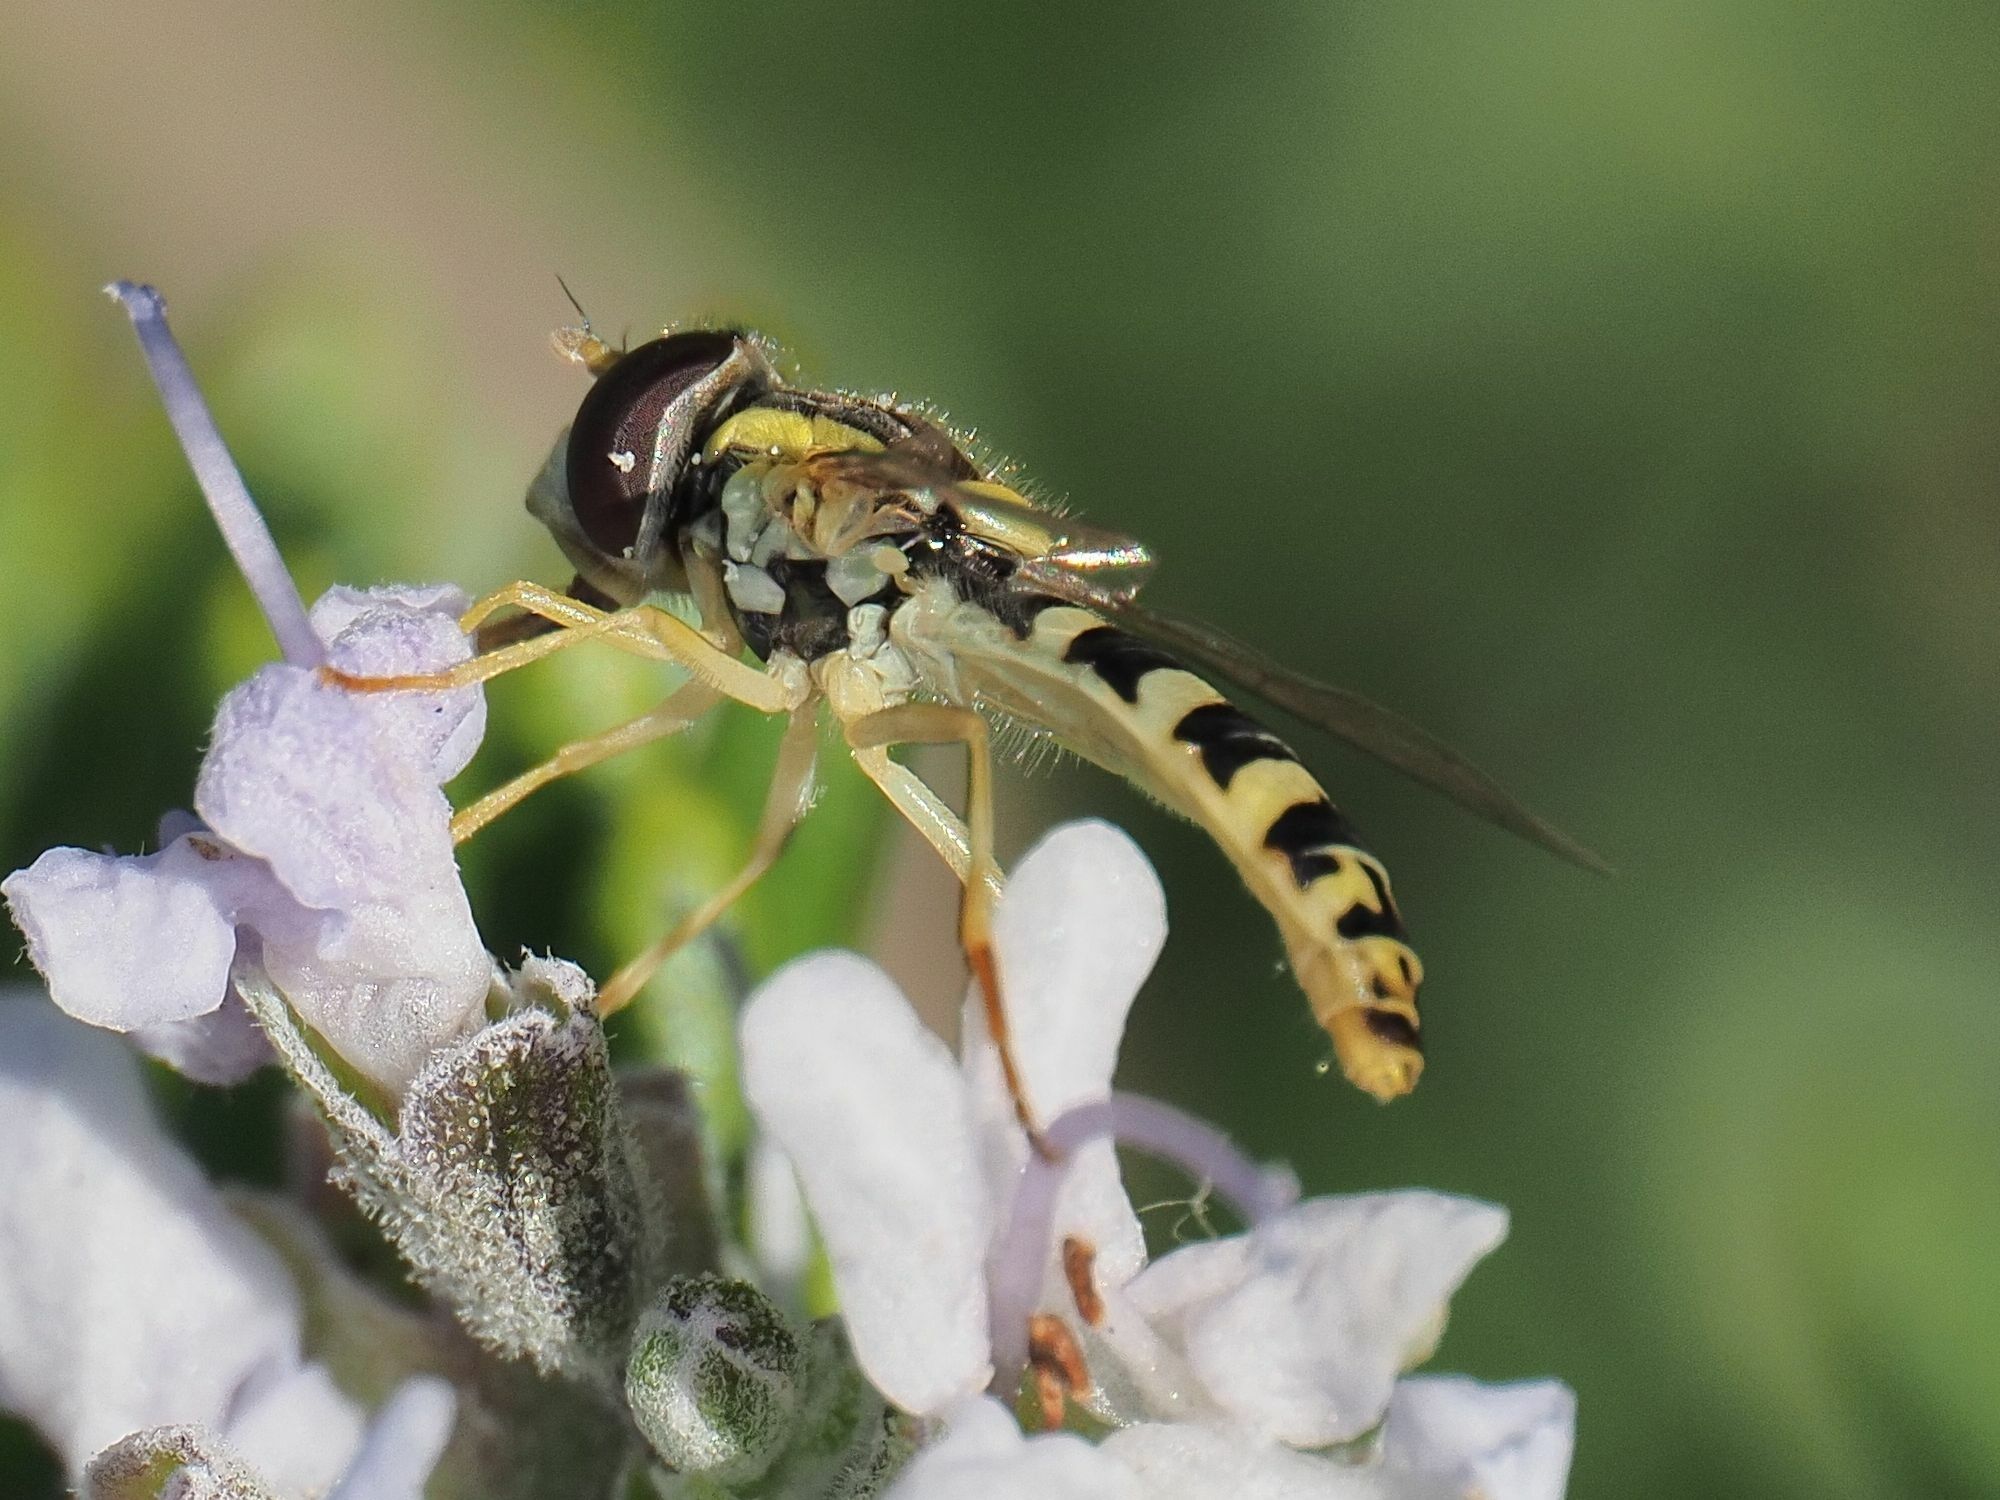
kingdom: Animalia
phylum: Arthropoda
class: Insecta
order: Diptera
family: Syrphidae
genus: Sphaerophoria
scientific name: Sphaerophoria
